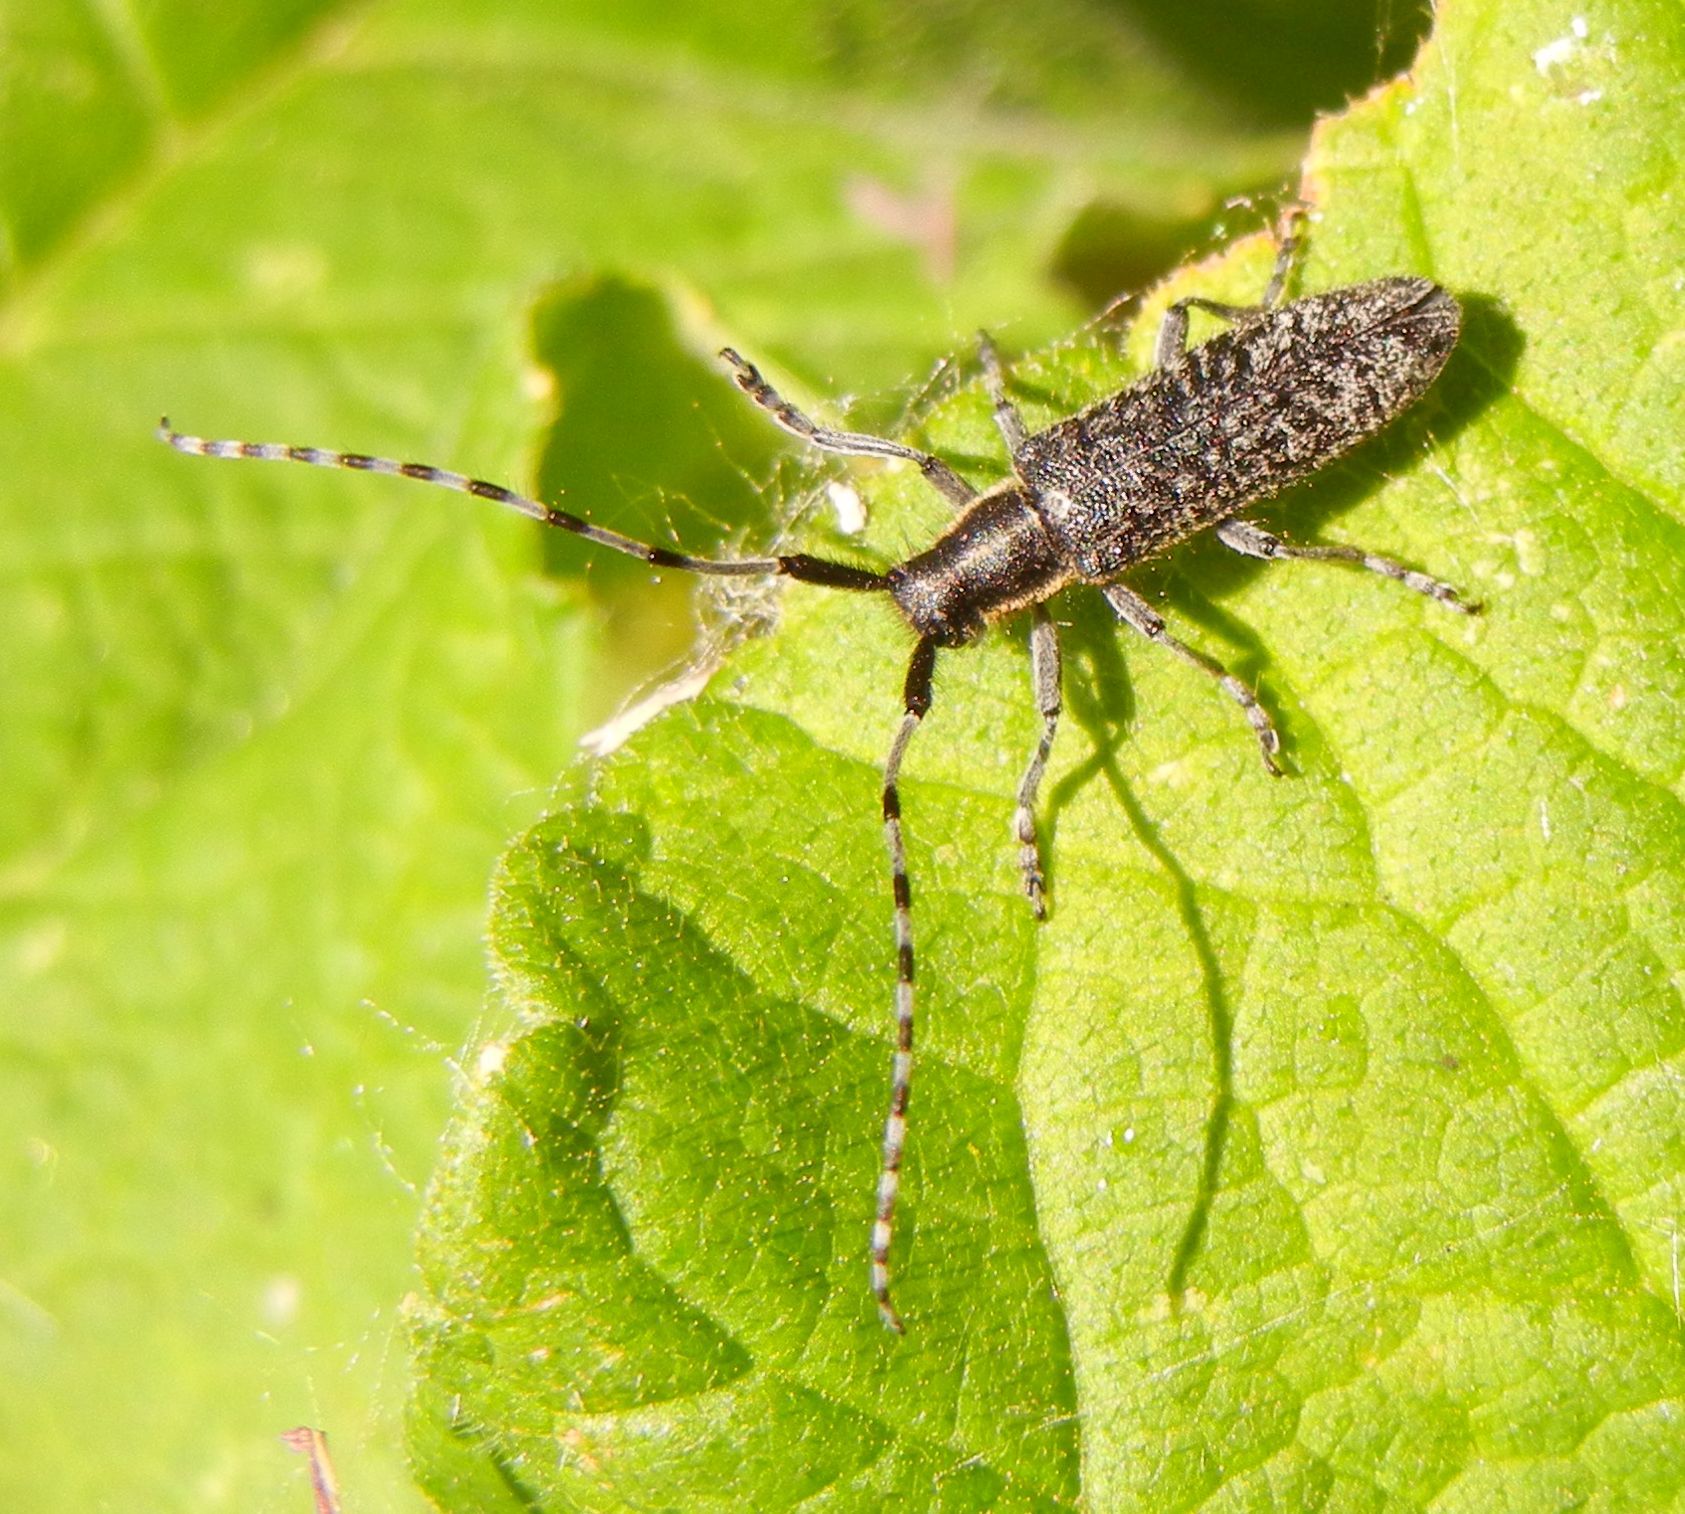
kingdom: Animalia
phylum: Arthropoda
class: Insecta
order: Coleoptera
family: Cerambycidae
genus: Agapanthia
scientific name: Agapanthia villosoviridescens
